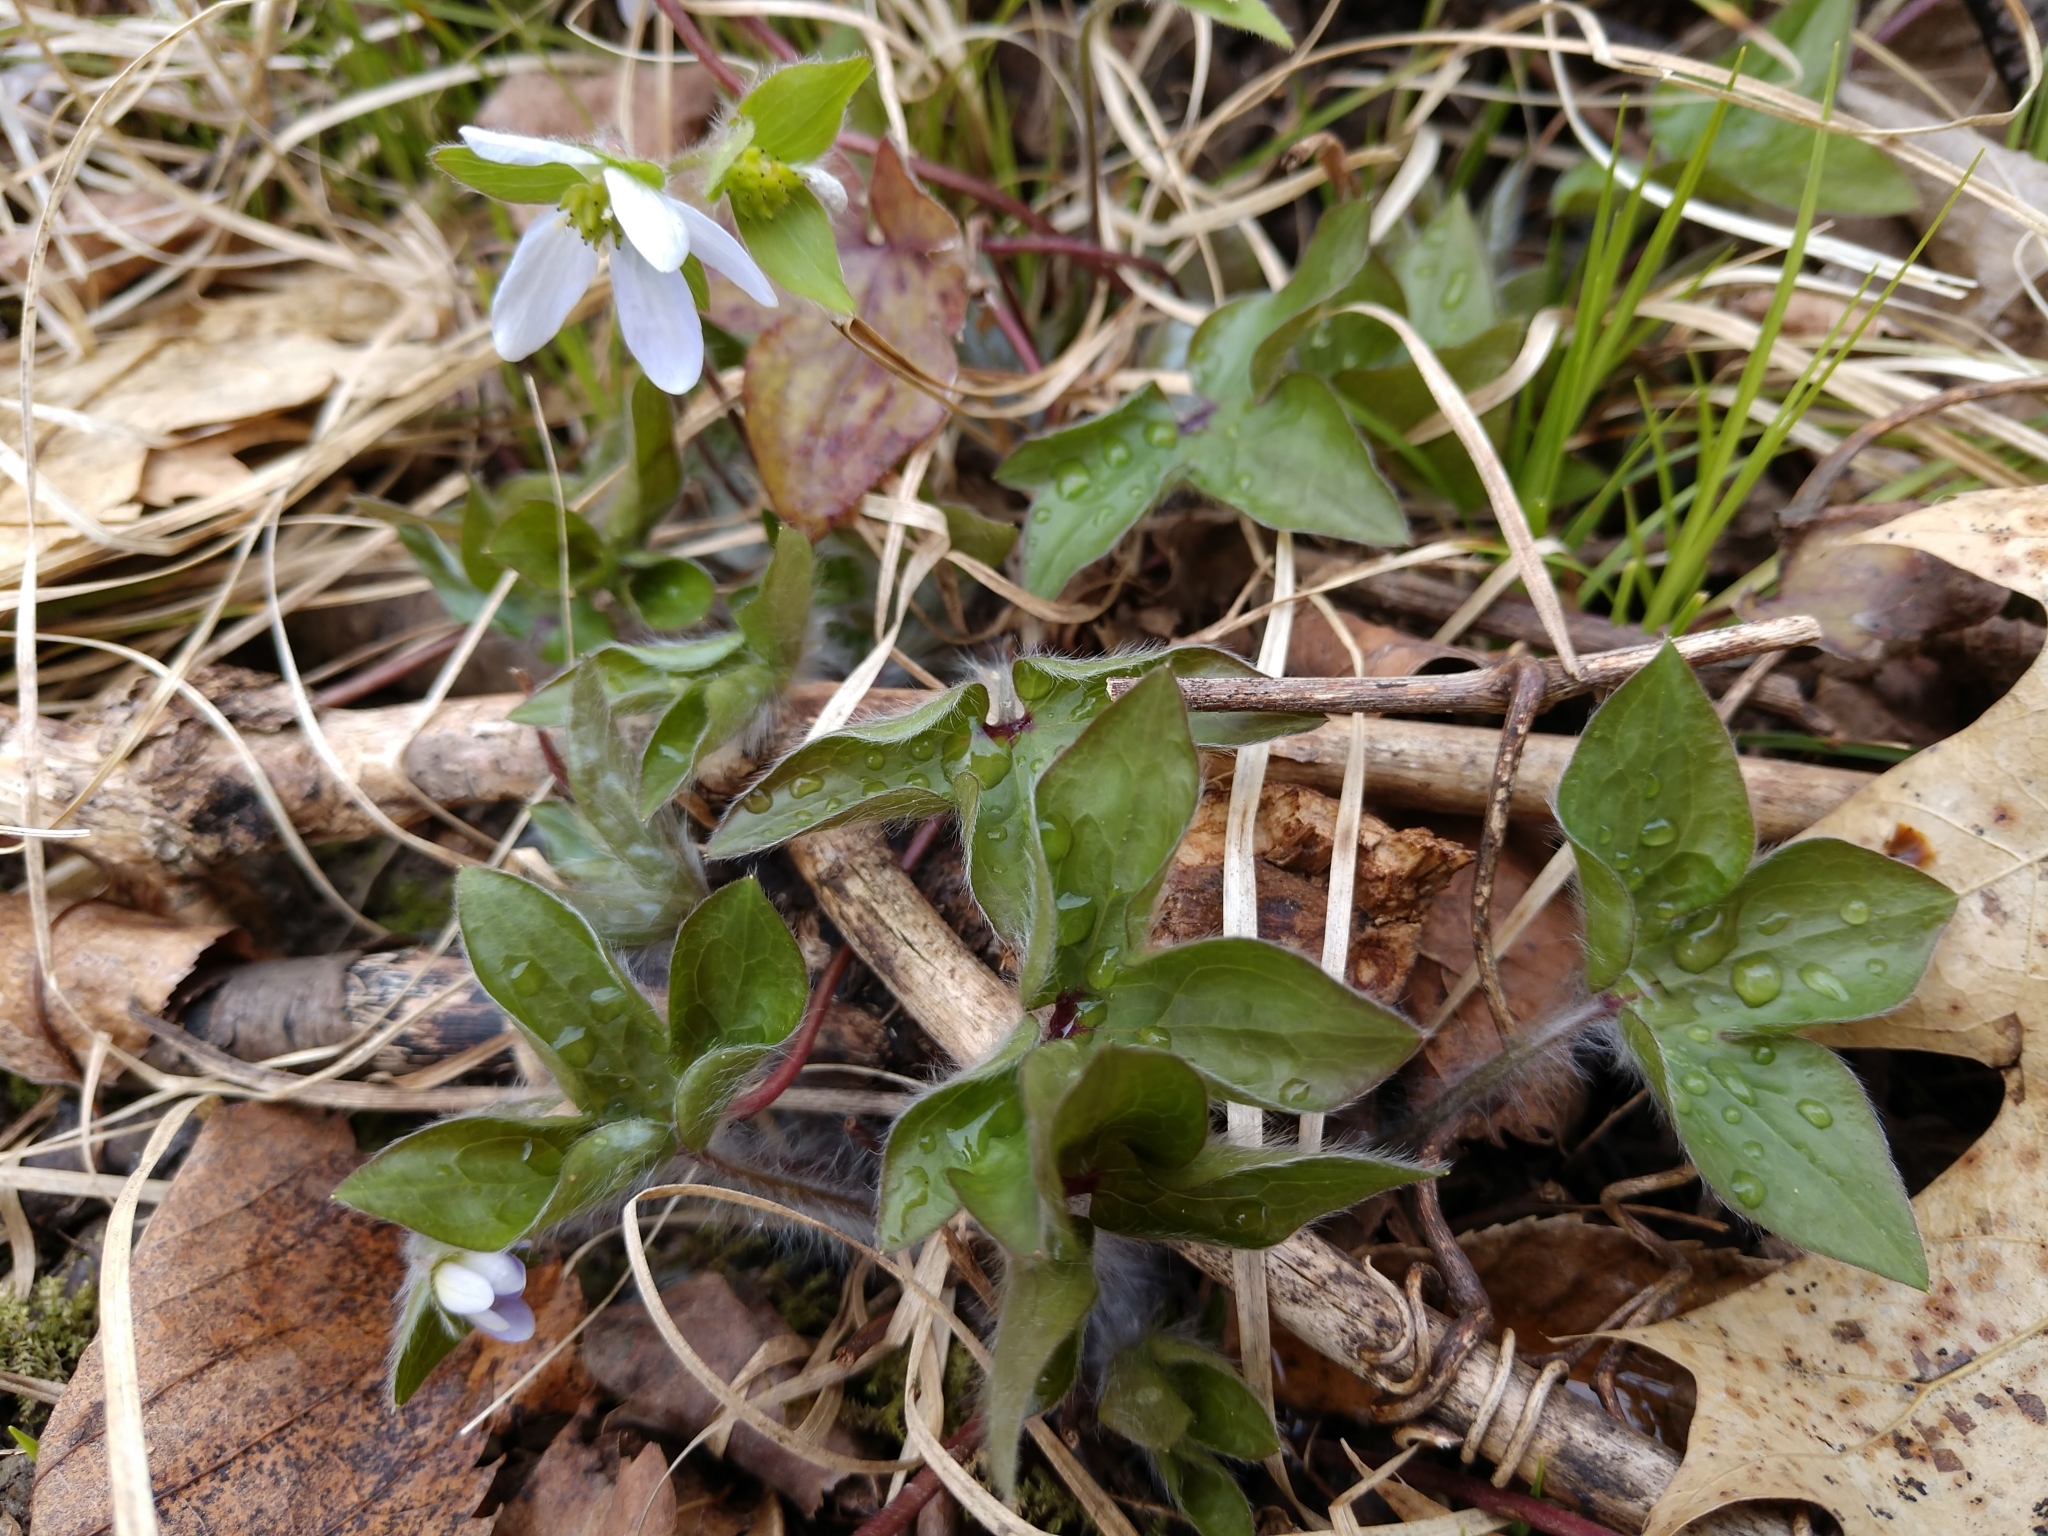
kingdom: Plantae
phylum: Tracheophyta
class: Magnoliopsida
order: Ranunculales
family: Ranunculaceae
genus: Hepatica
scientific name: Hepatica acutiloba
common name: Sharp-lobed hepatica
